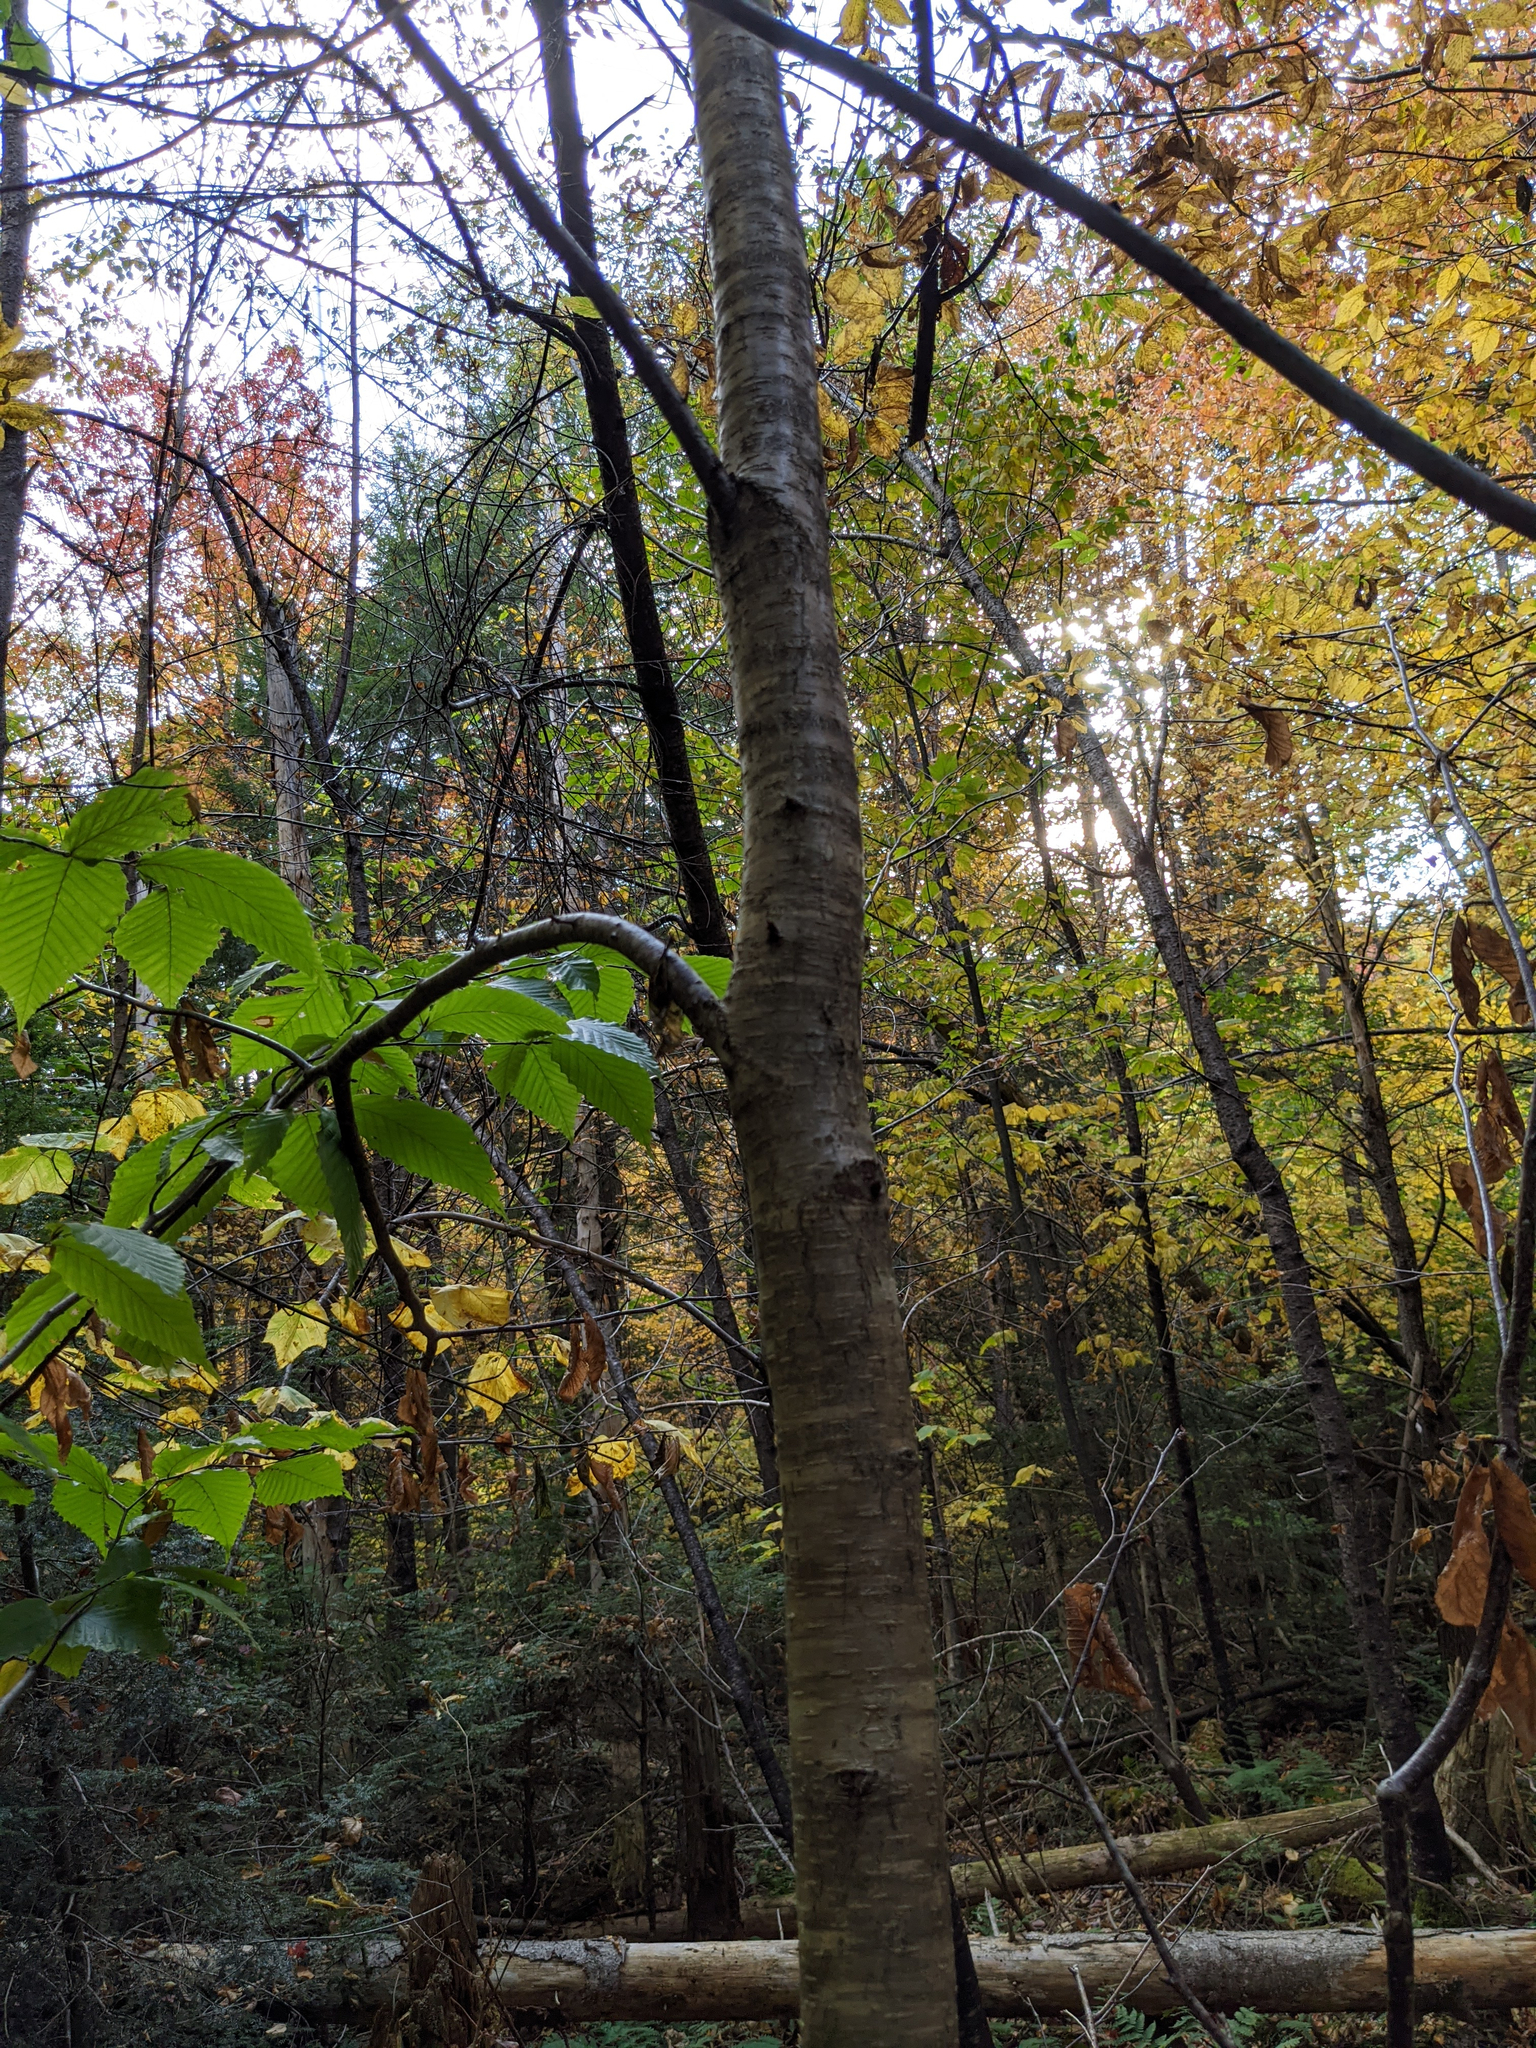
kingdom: Plantae
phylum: Tracheophyta
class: Magnoliopsida
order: Fagales
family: Betulaceae
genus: Betula
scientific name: Betula alleghaniensis
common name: Yellow birch
